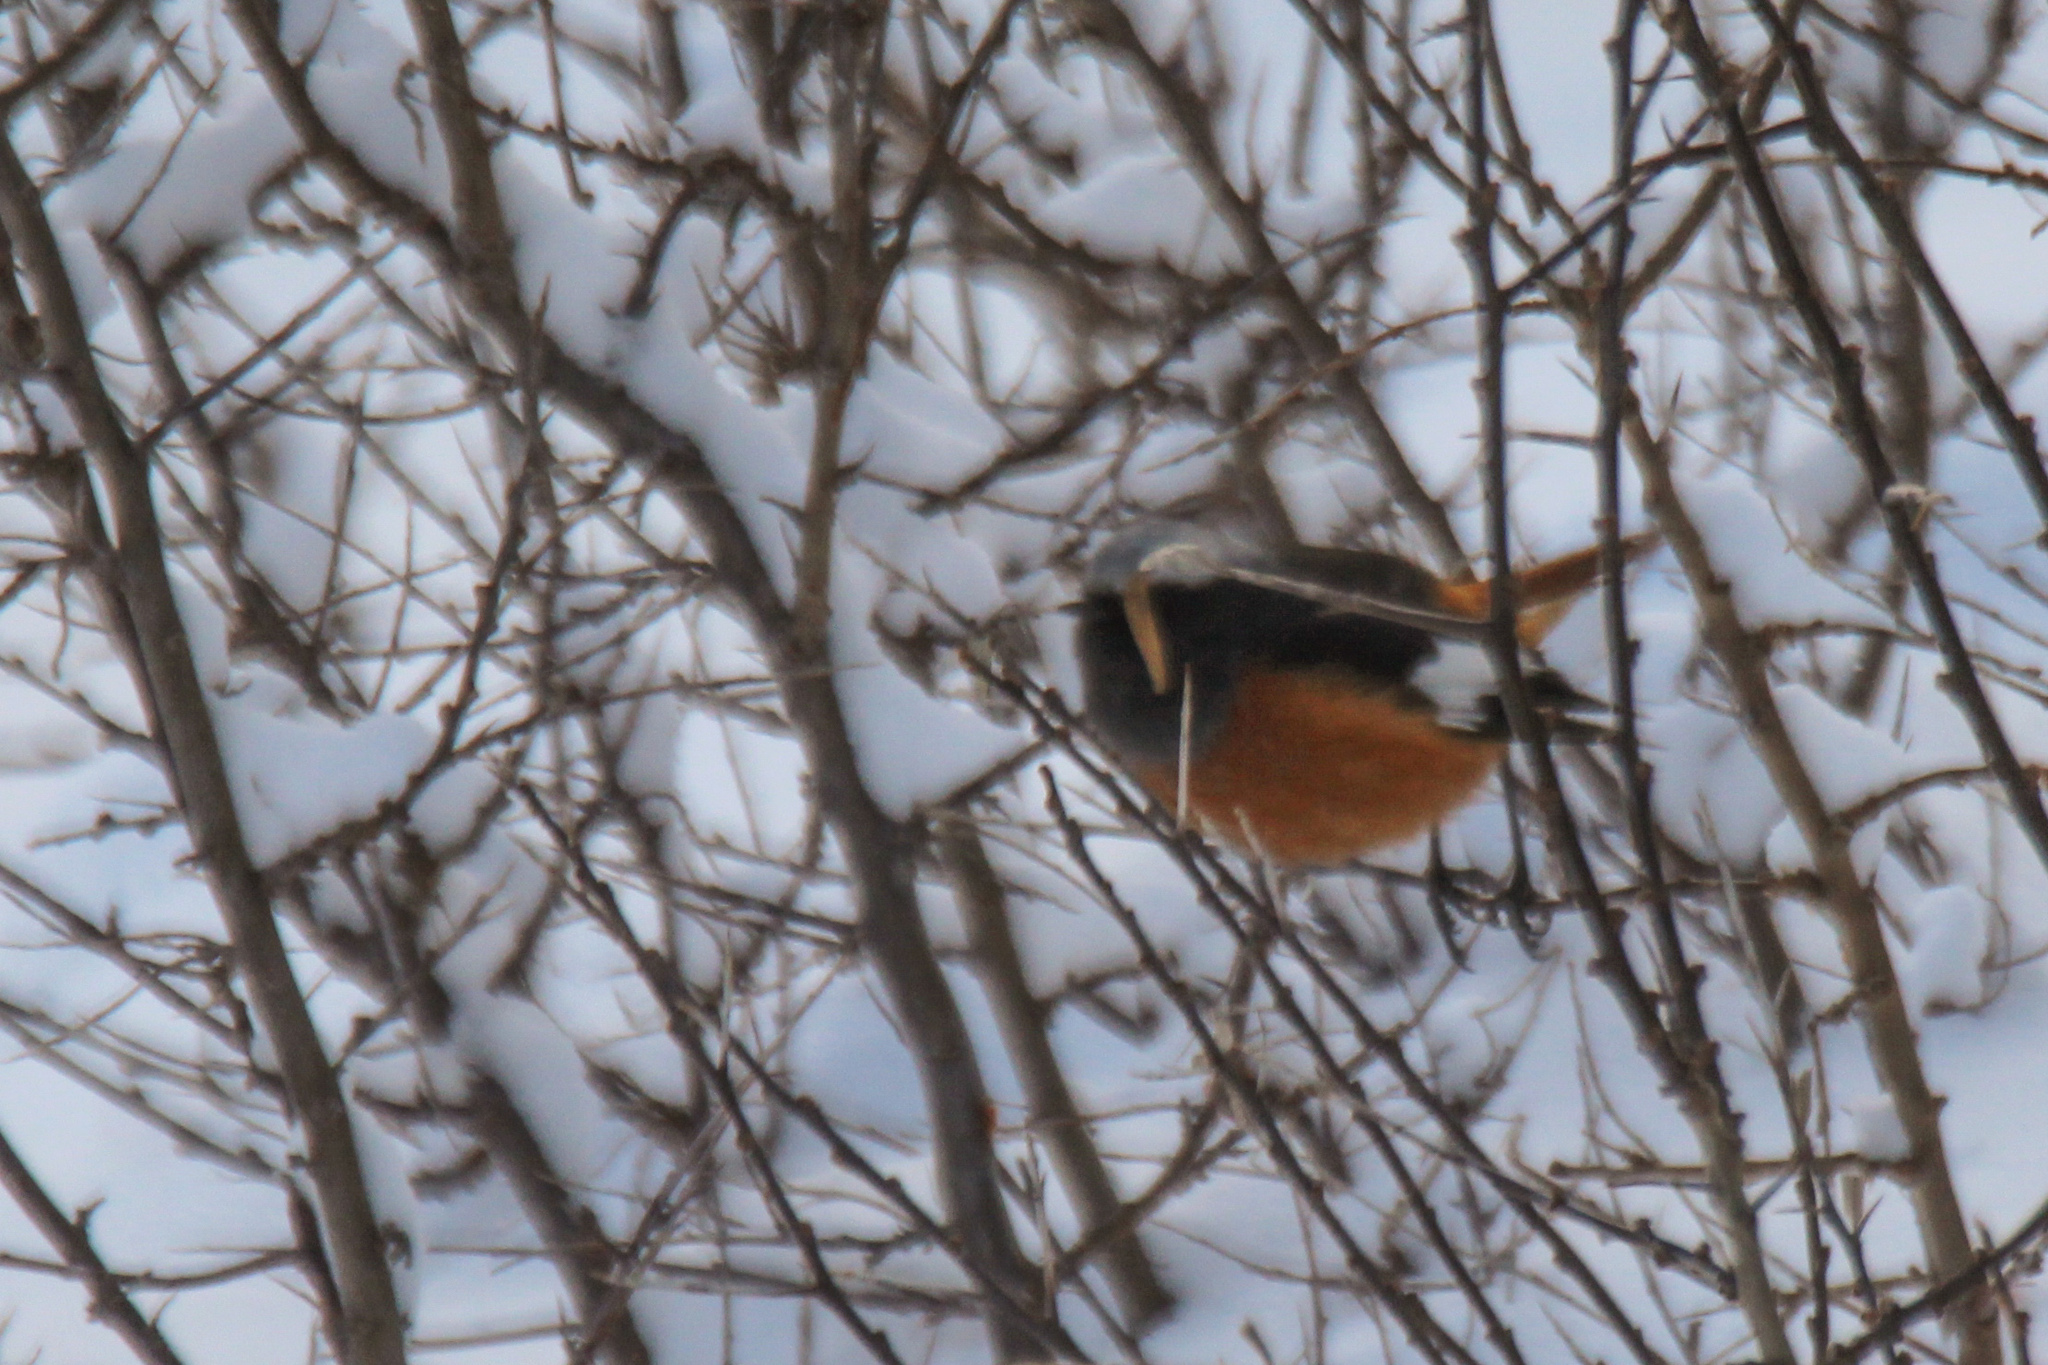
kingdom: Animalia
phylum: Chordata
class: Aves
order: Passeriformes
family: Muscicapidae
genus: Phoenicurus
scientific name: Phoenicurus erythrogastrus
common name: Güldenstädt's redstart
